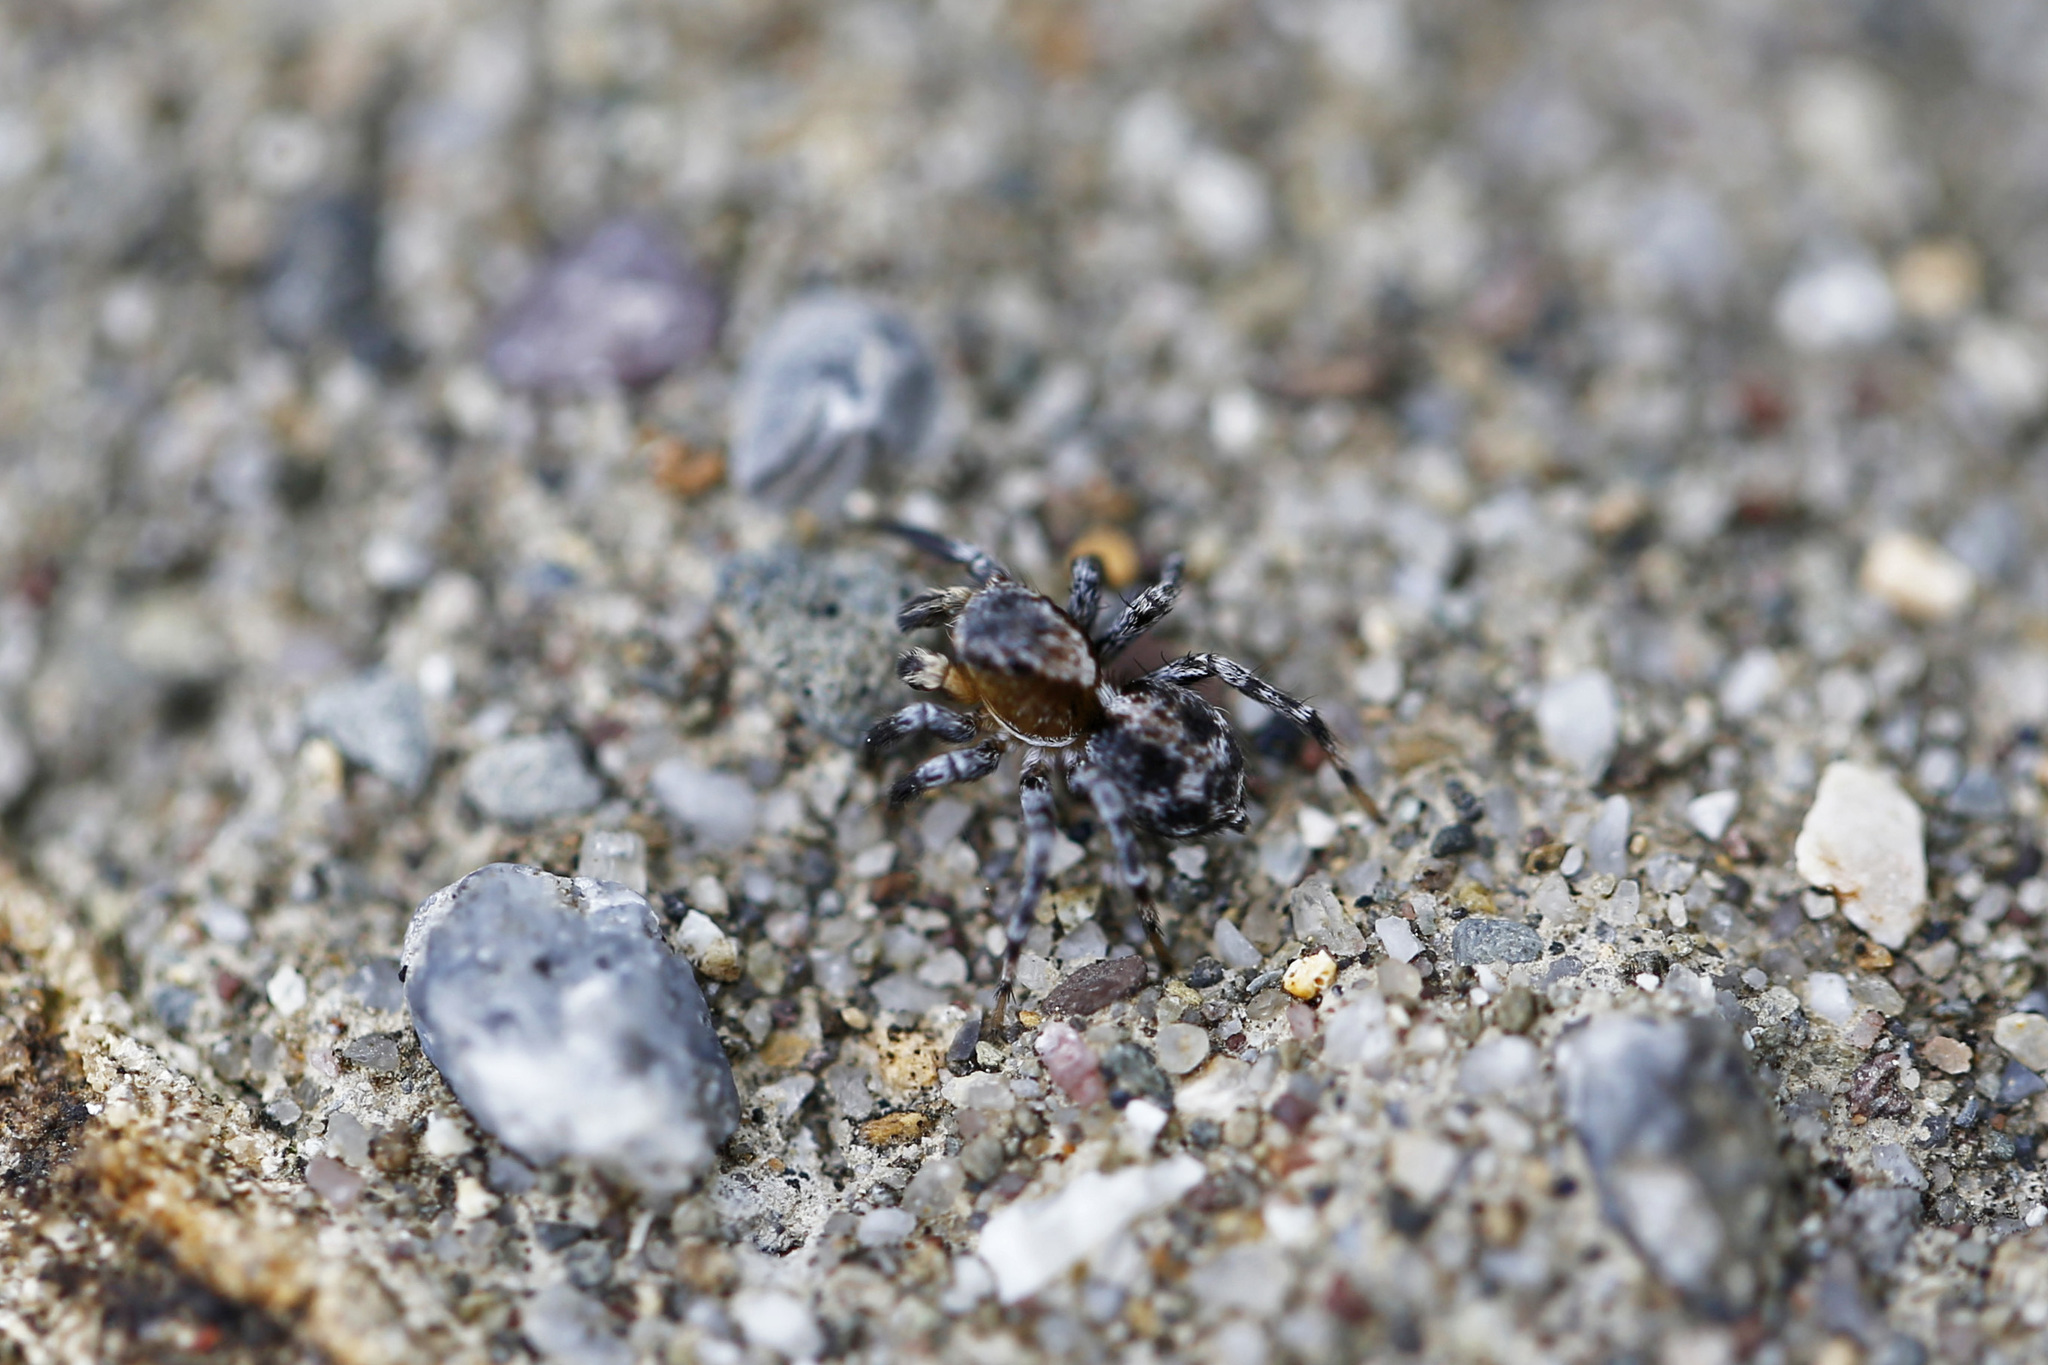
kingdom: Animalia
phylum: Arthropoda
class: Arachnida
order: Araneae
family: Salticidae
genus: Naphrys
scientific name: Naphrys pulex
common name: Flea jumping spider
